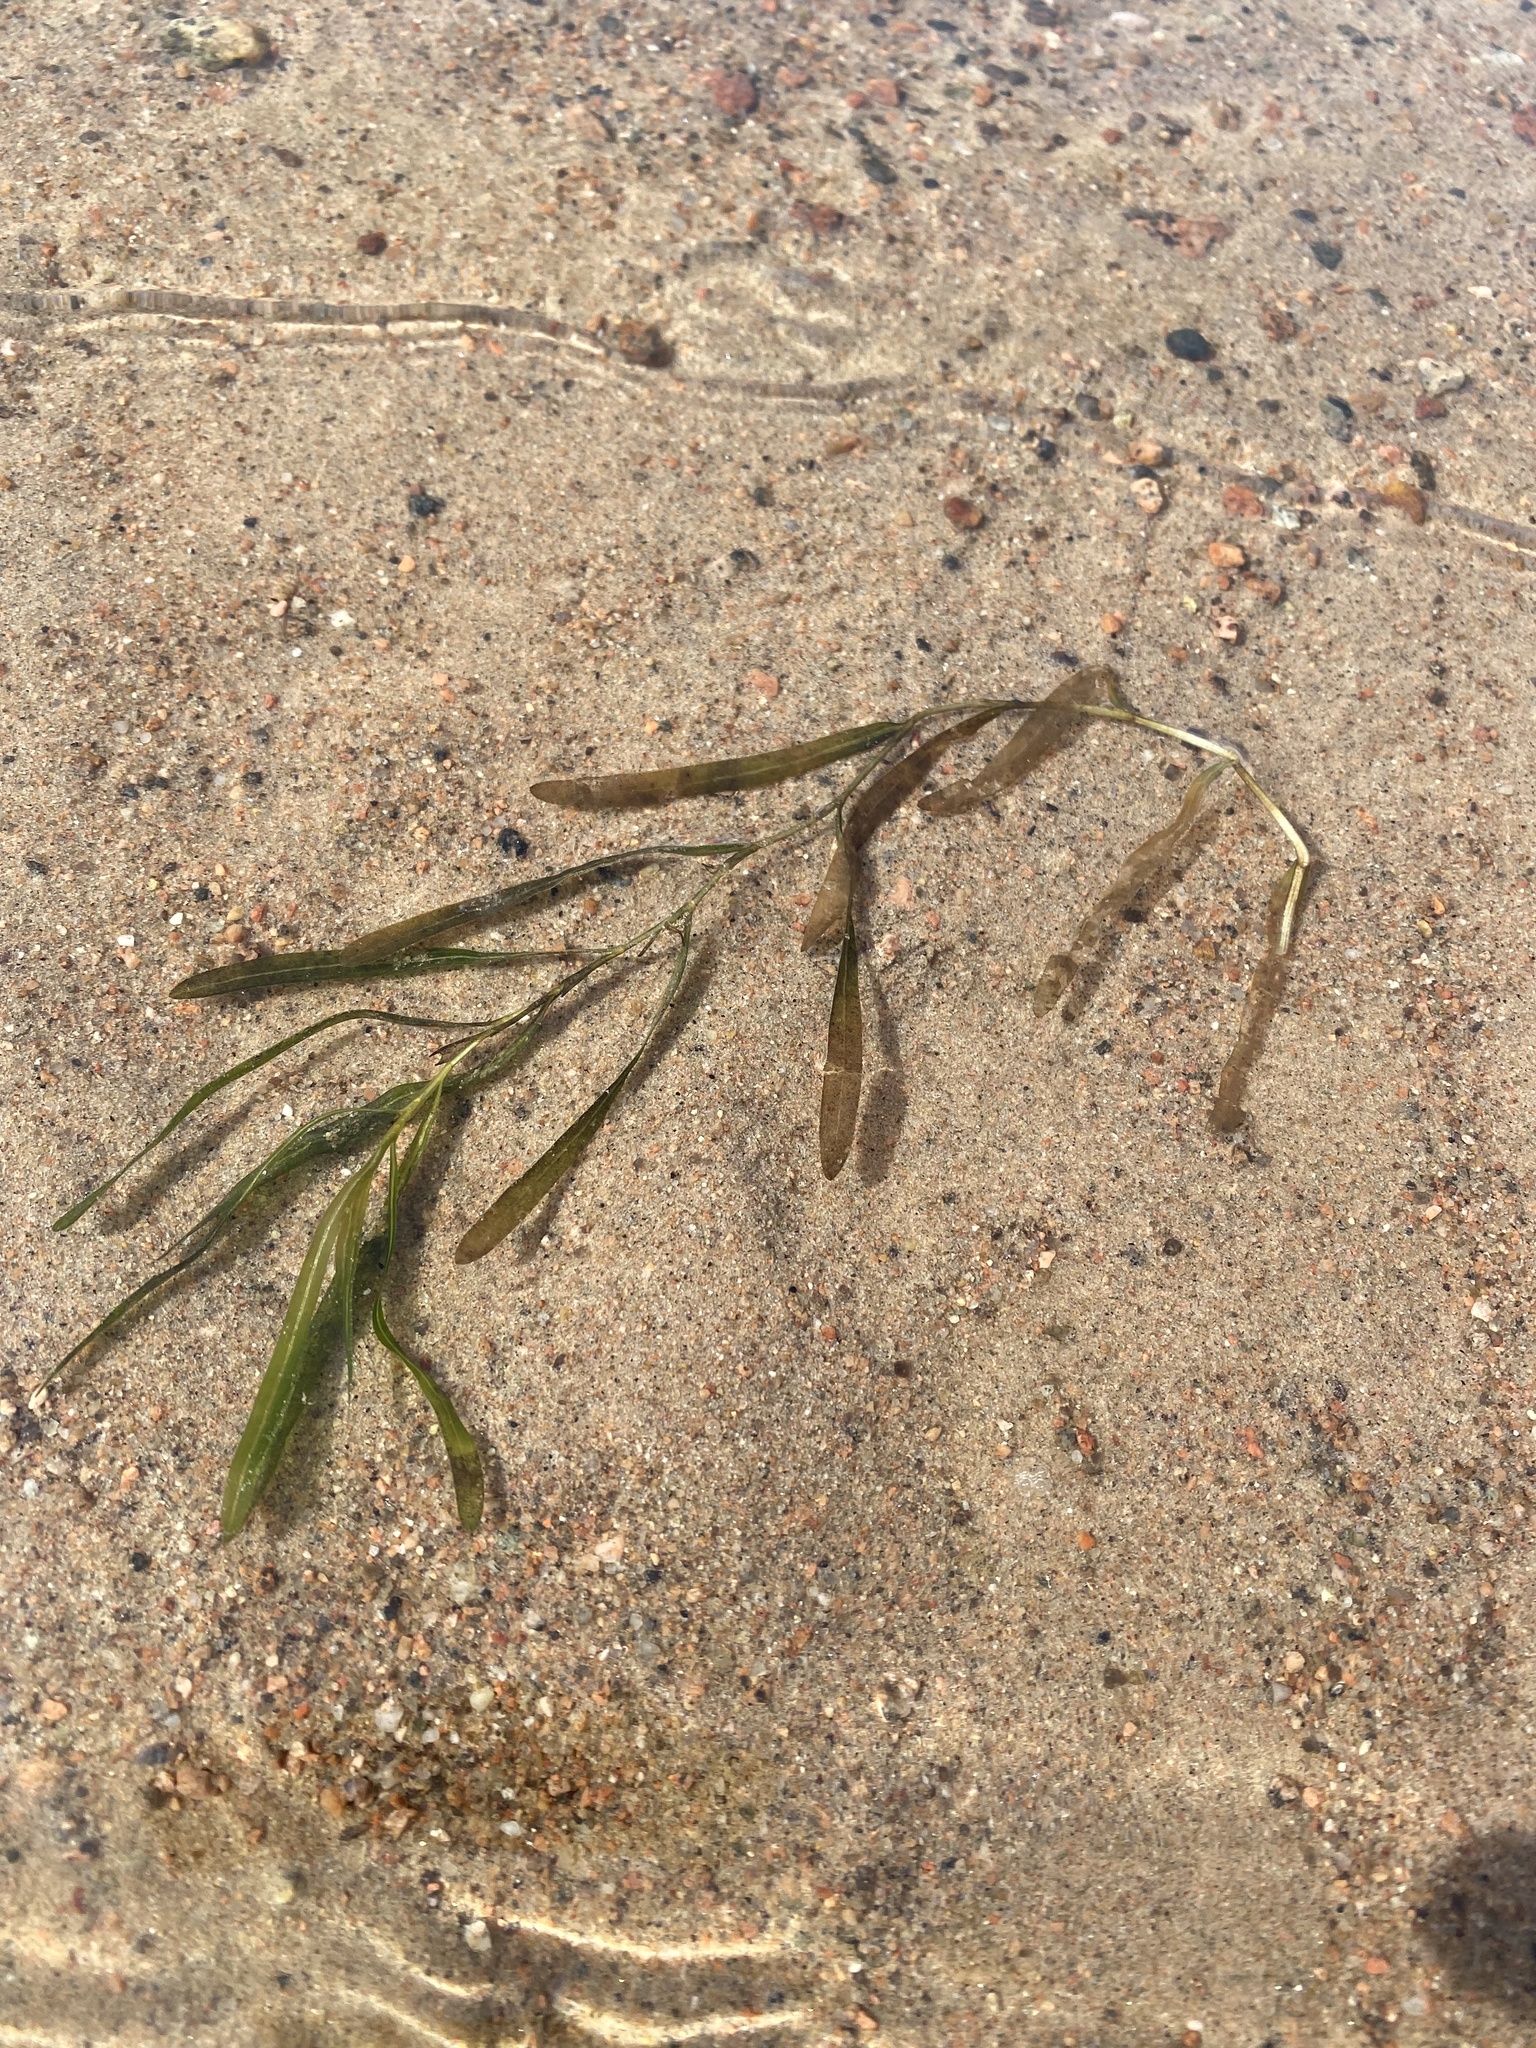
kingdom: Plantae
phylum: Tracheophyta
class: Liliopsida
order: Alismatales
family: Potamogetonaceae
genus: Potamogeton
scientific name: Potamogeton
